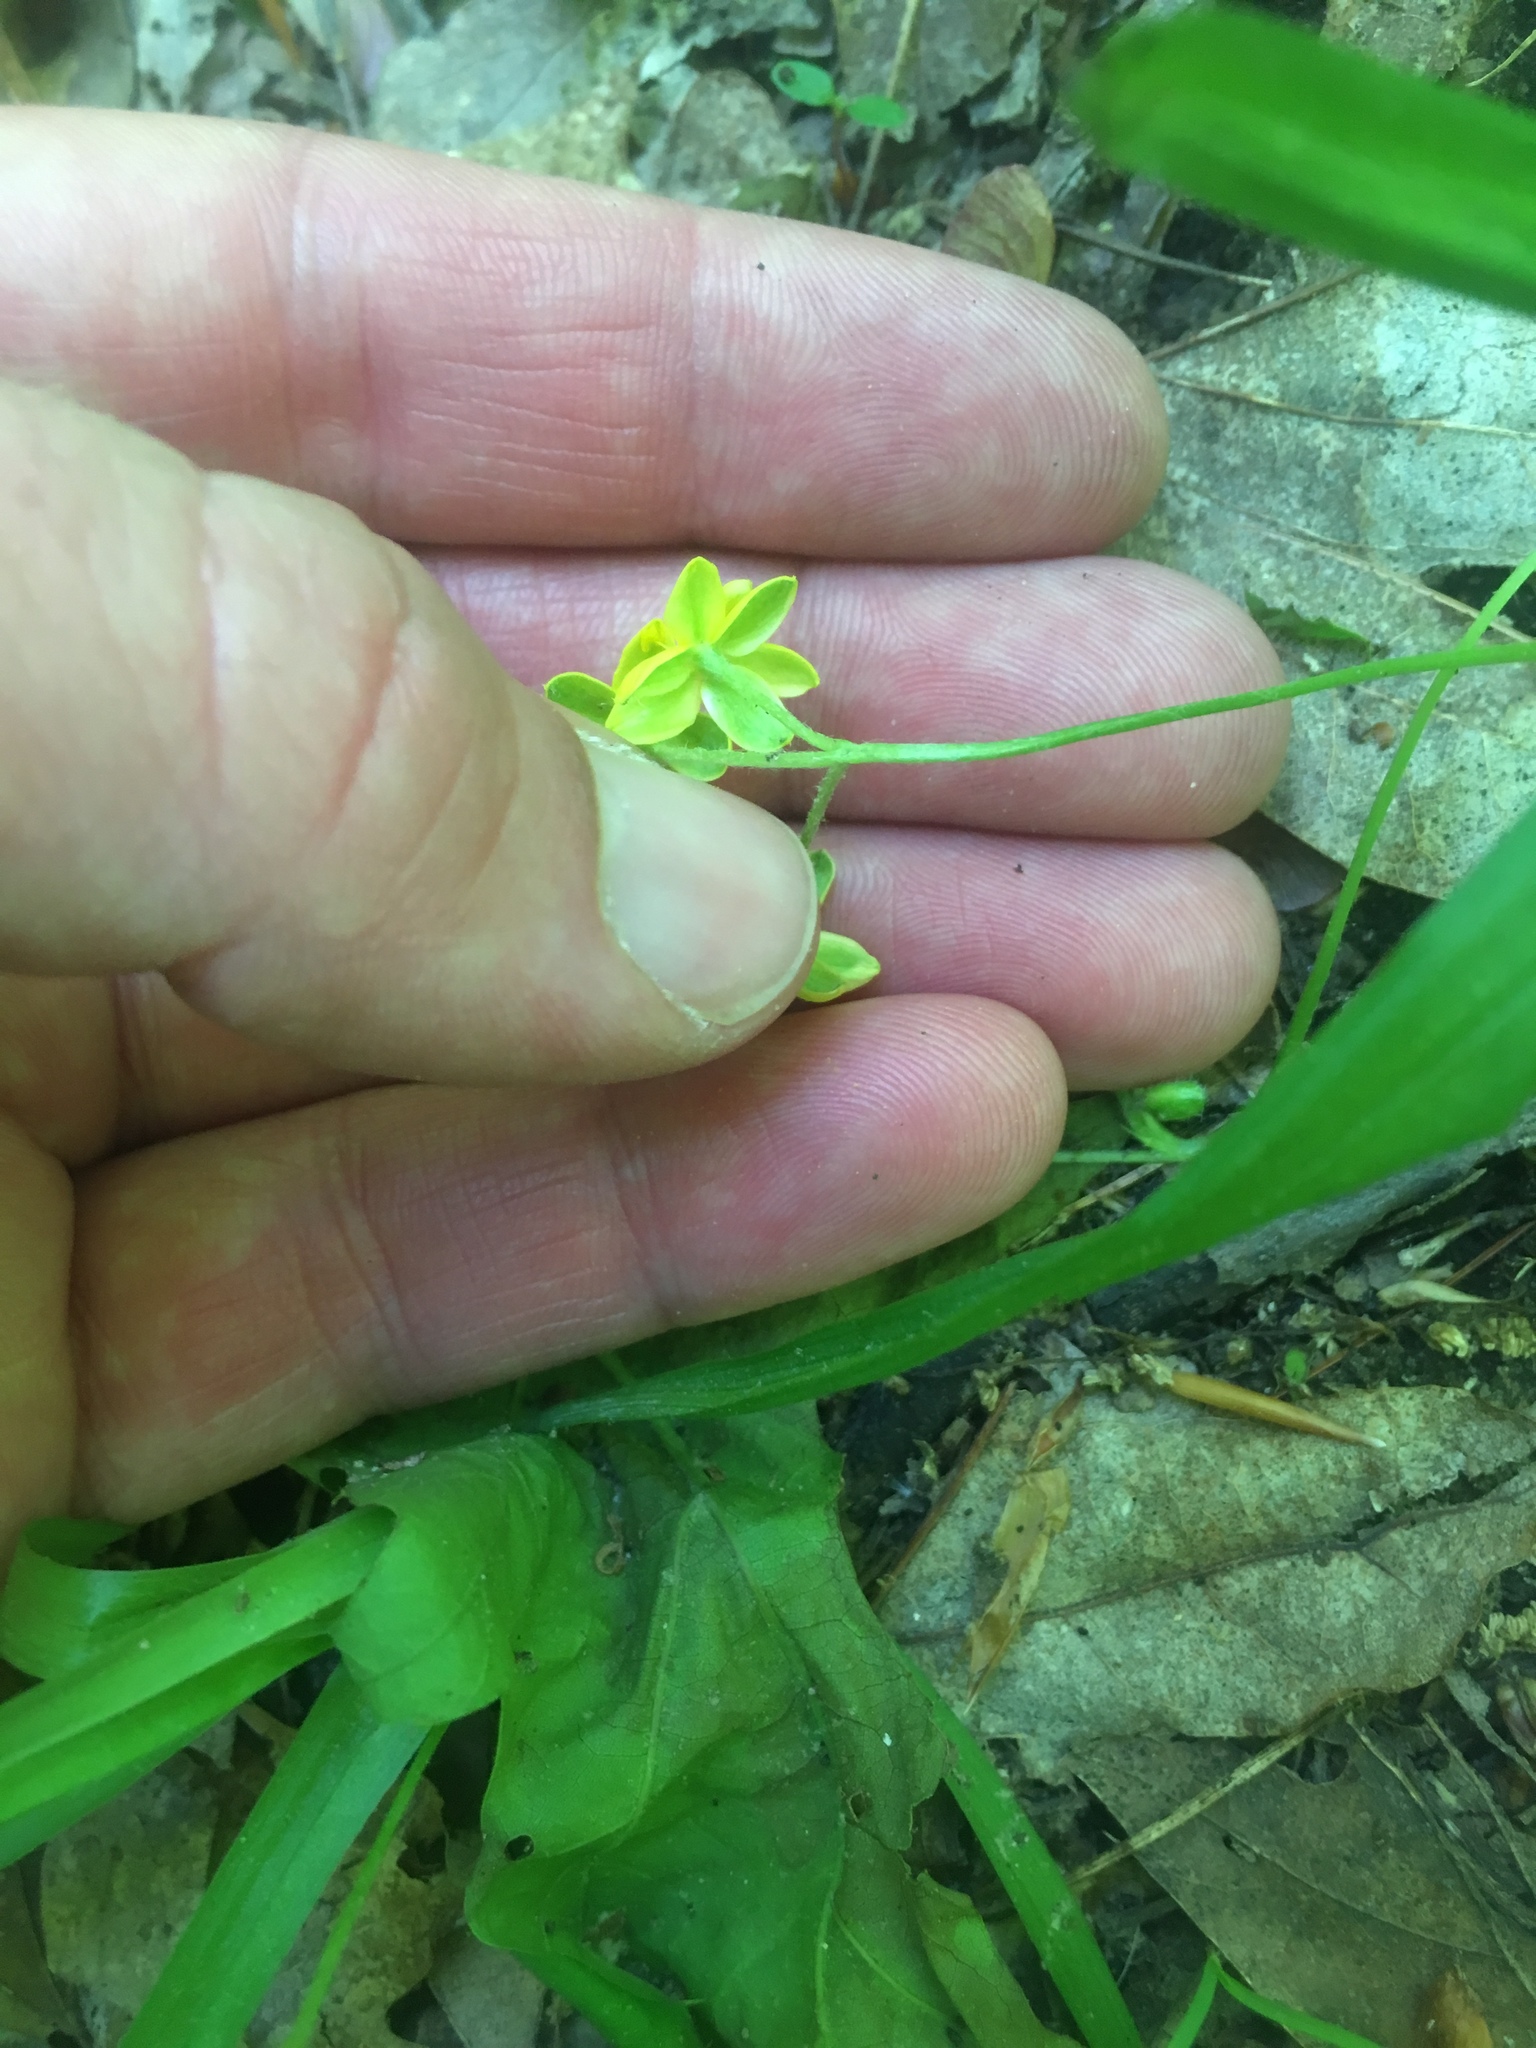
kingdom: Plantae
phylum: Tracheophyta
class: Liliopsida
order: Asparagales
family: Hypoxidaceae
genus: Hypoxis
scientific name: Hypoxis hirsuta
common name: Common goldstar
